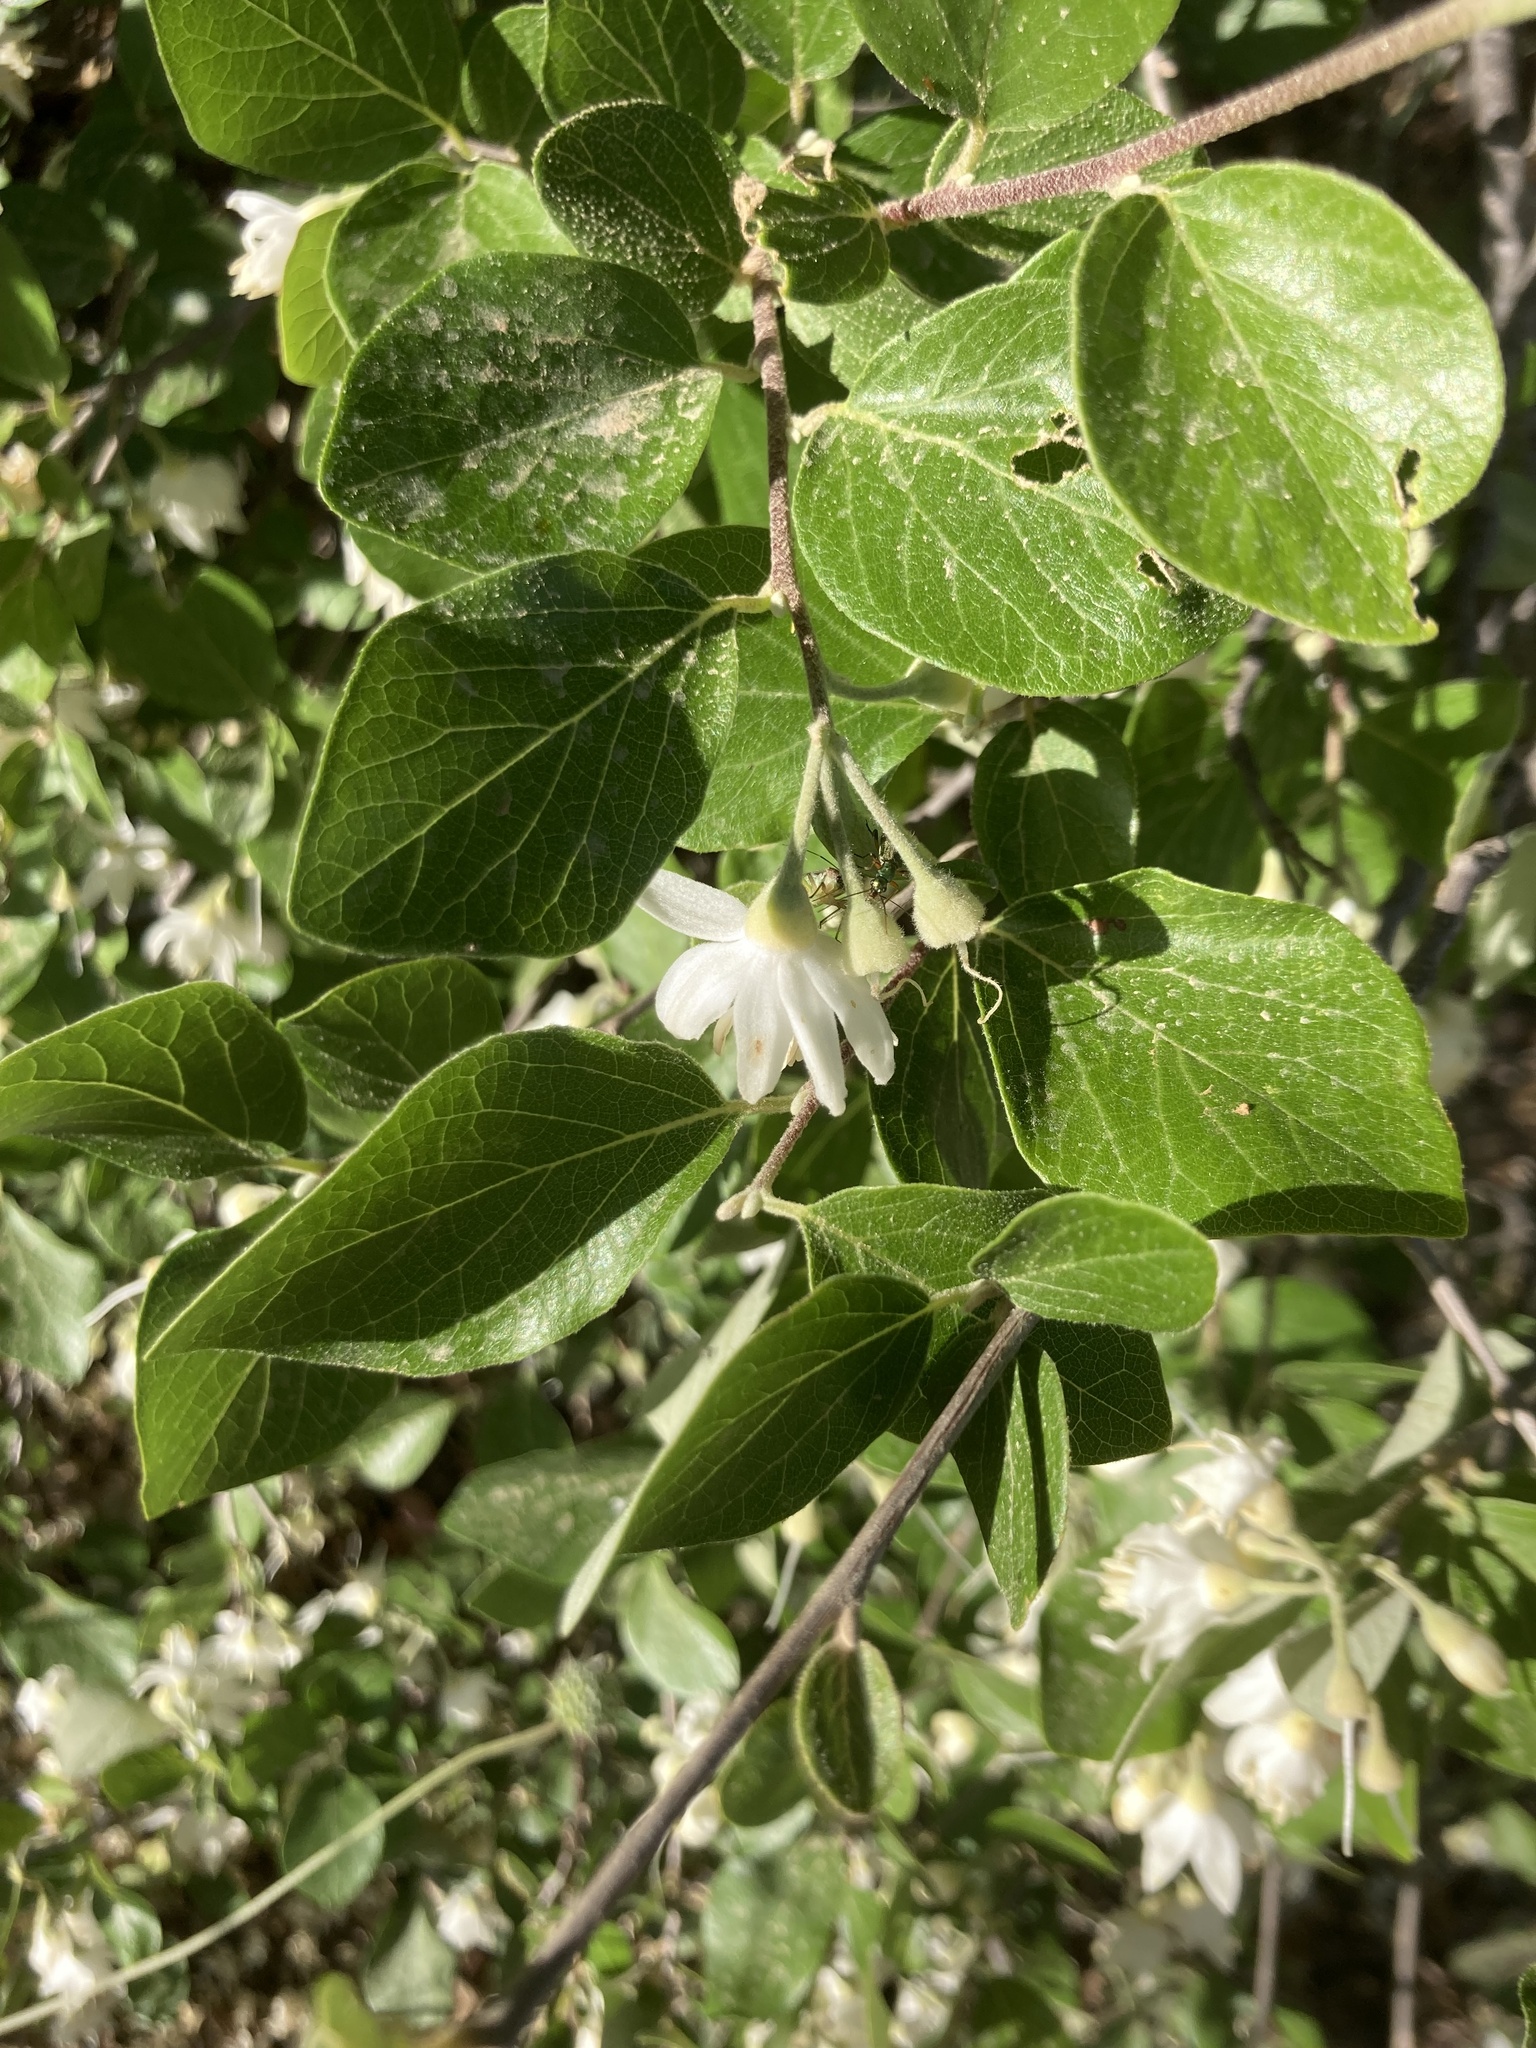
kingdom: Plantae
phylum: Tracheophyta
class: Magnoliopsida
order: Ericales
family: Styracaceae
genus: Styrax
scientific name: Styrax officinalis
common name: Storax
